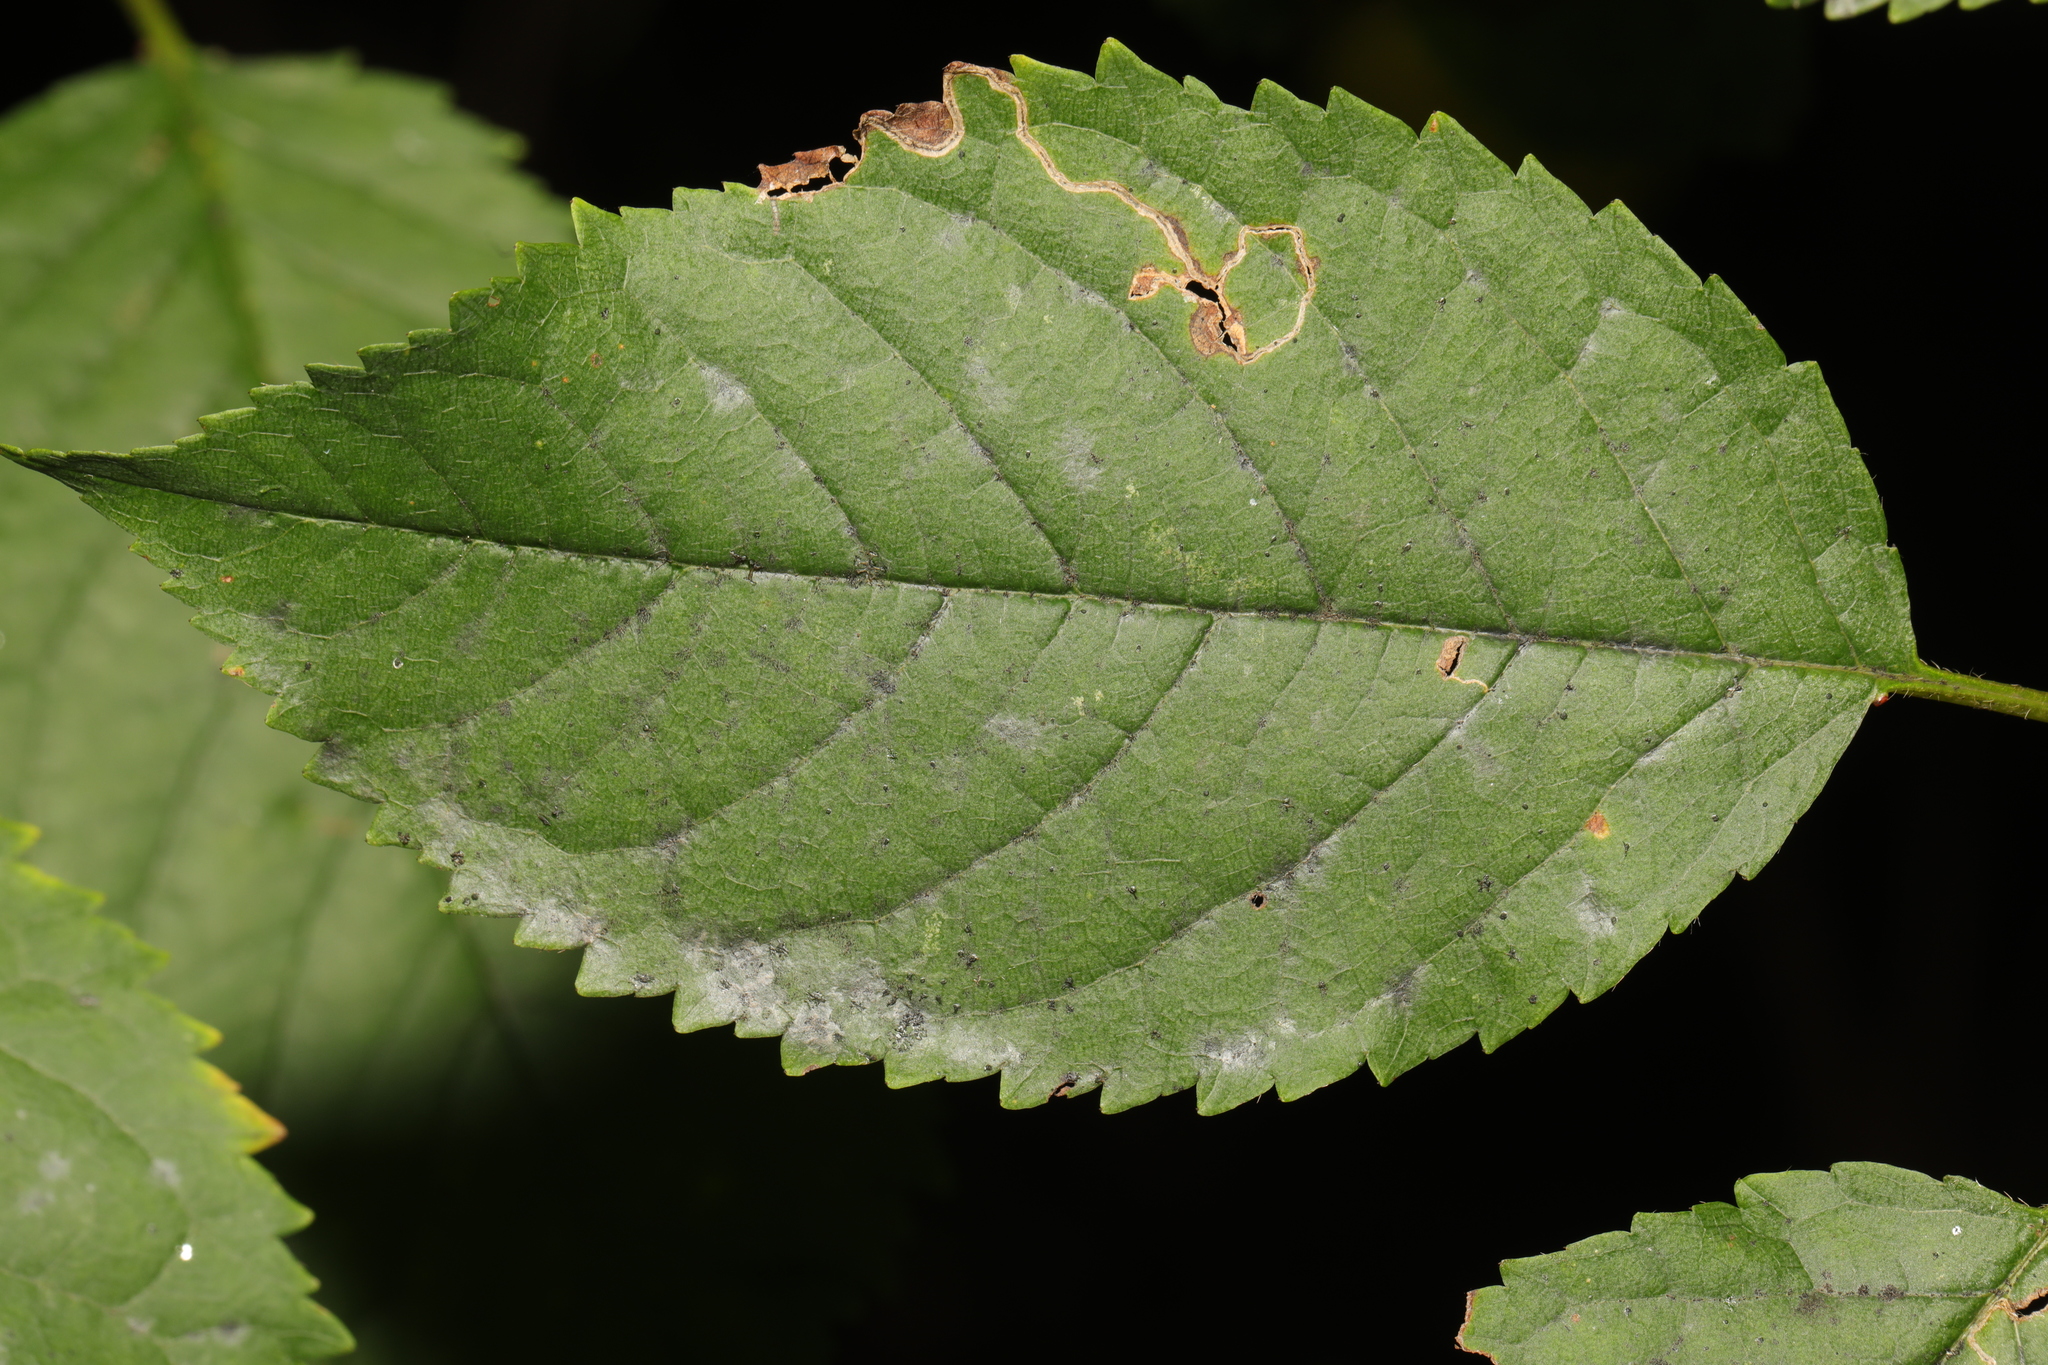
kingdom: Plantae
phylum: Tracheophyta
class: Magnoliopsida
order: Rosales
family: Rosaceae
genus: Prunus
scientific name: Prunus avium
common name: Sweet cherry
